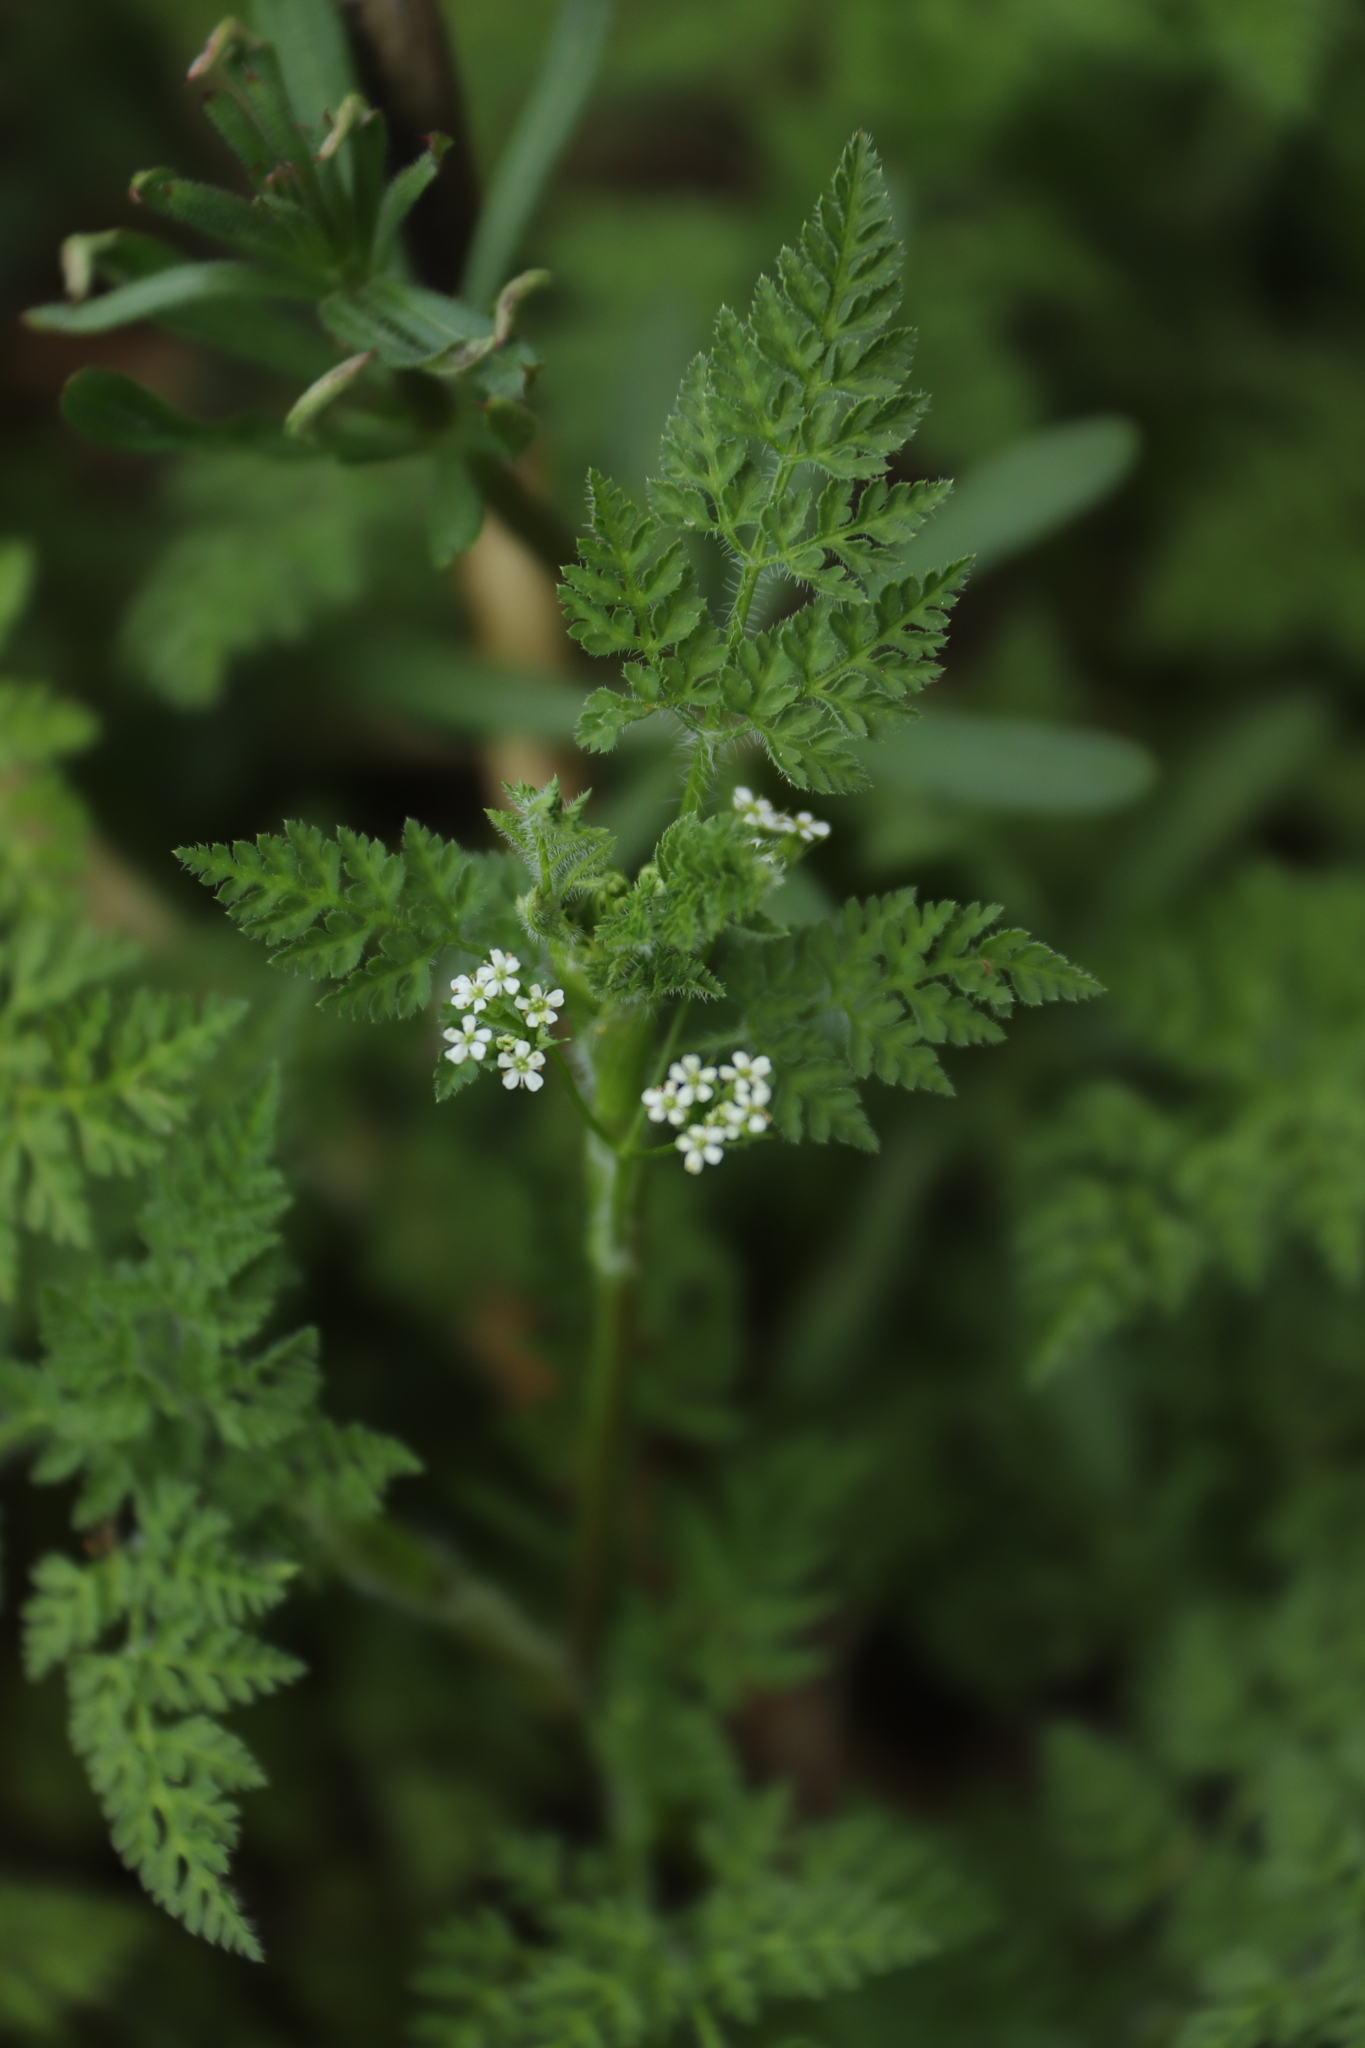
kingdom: Plantae
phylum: Tracheophyta
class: Magnoliopsida
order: Apiales
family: Apiaceae
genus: Anthriscus
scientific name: Anthriscus caucalis
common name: Bur chervil
